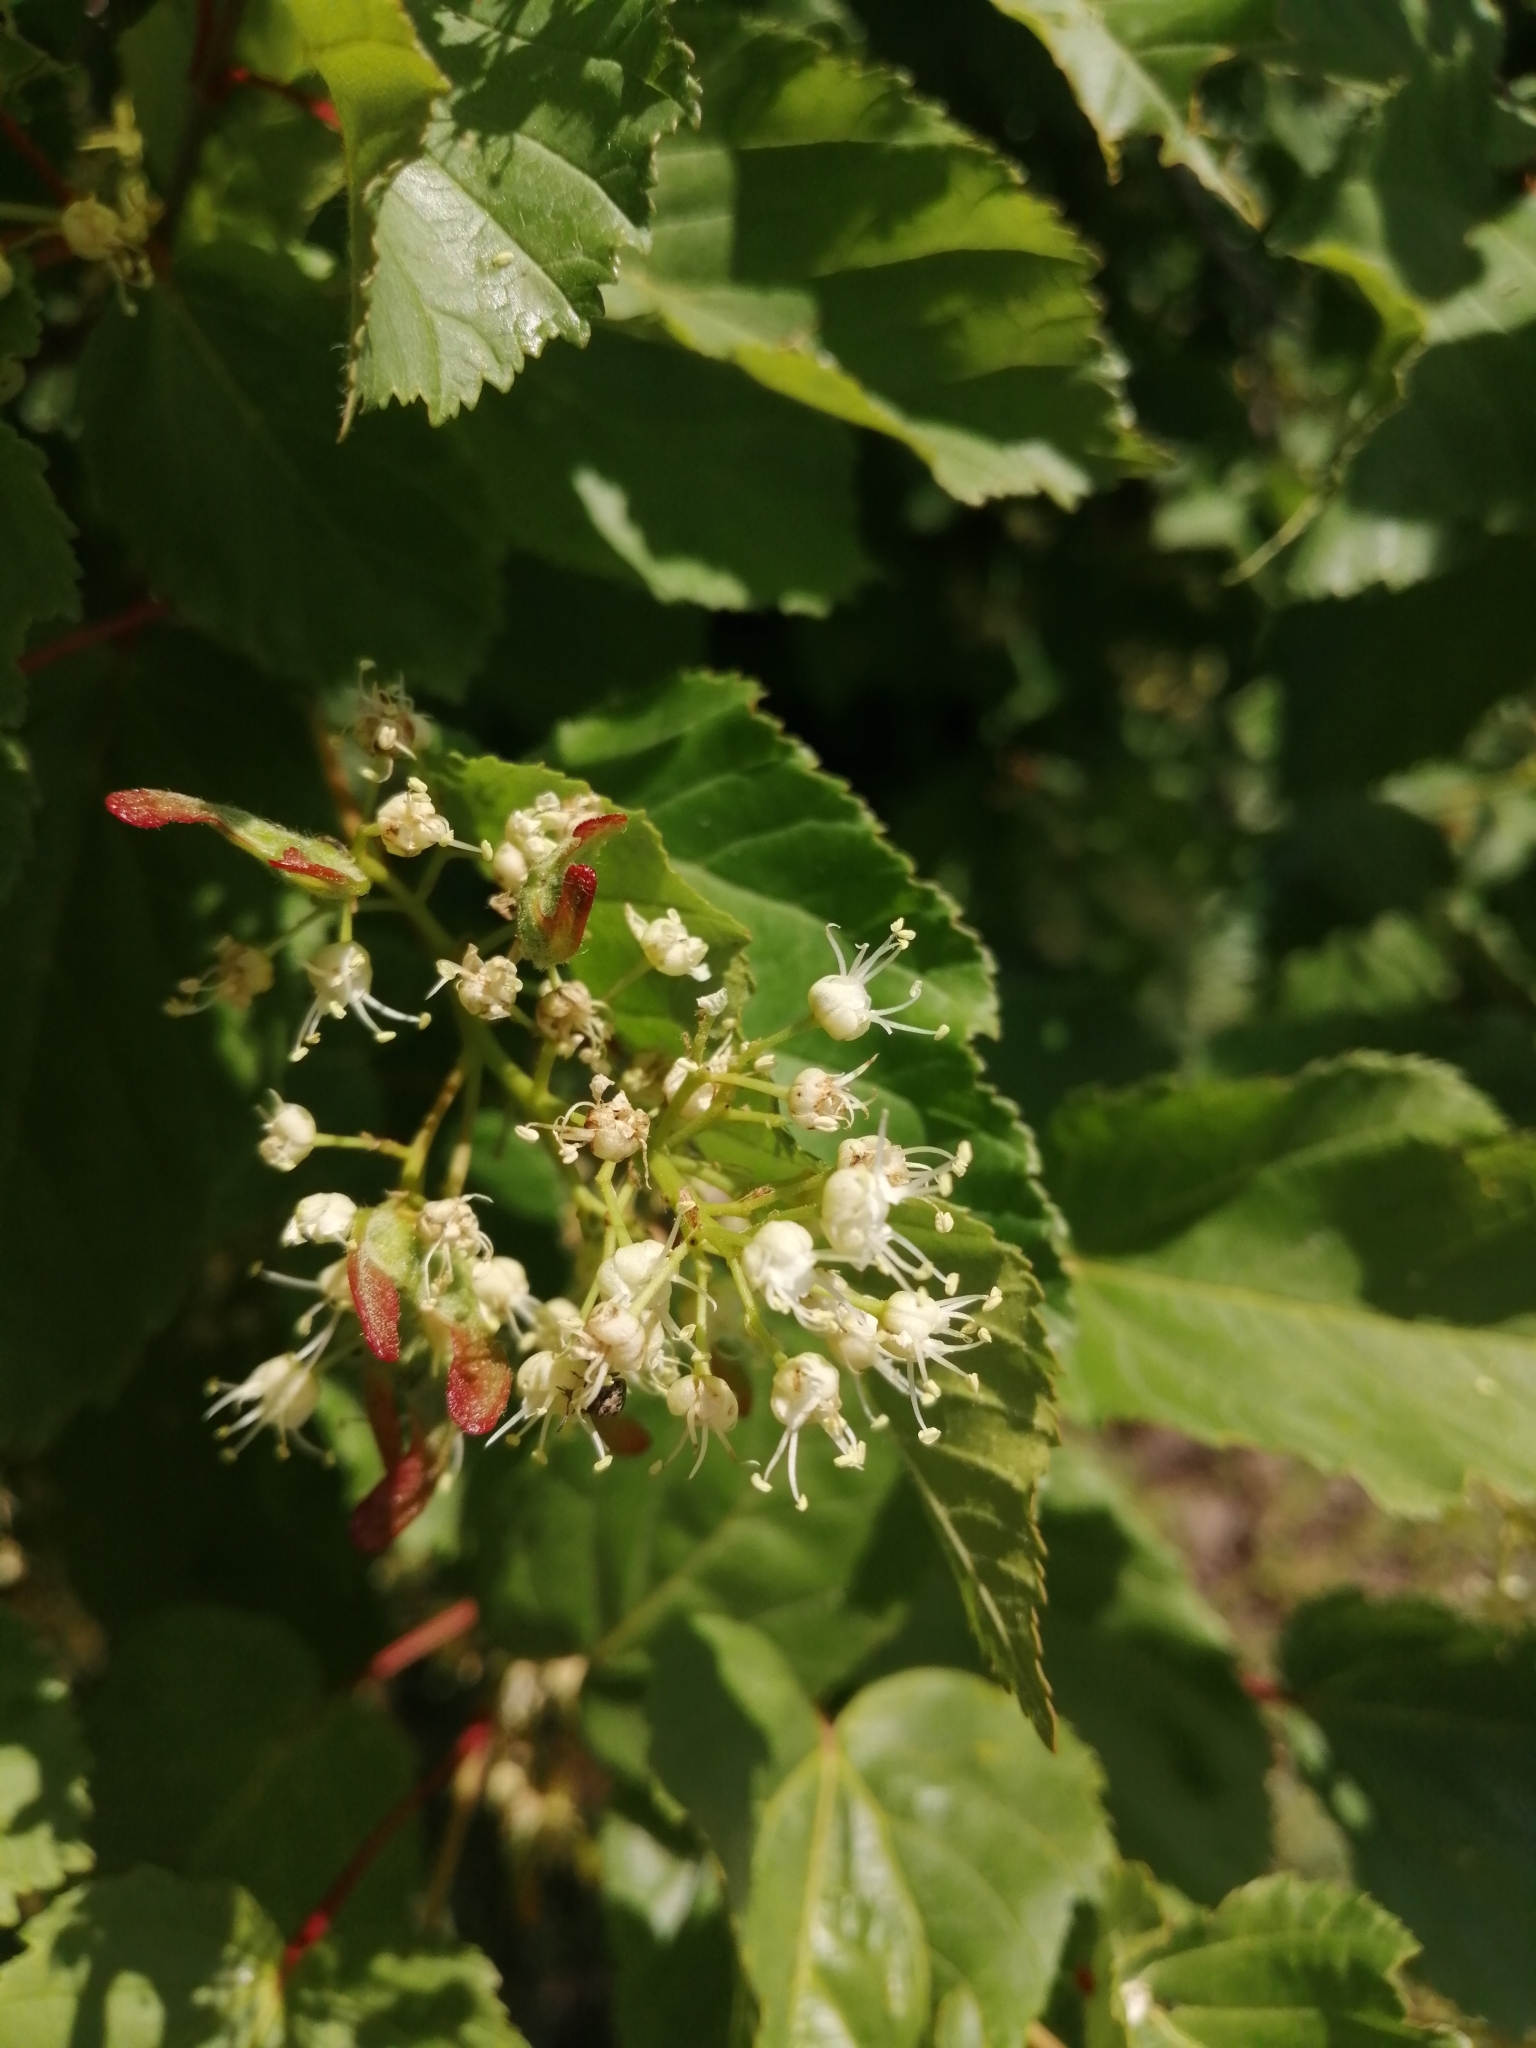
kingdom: Plantae
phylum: Tracheophyta
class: Magnoliopsida
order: Sapindales
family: Sapindaceae
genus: Acer
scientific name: Acer tataricum
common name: Tartar maple
